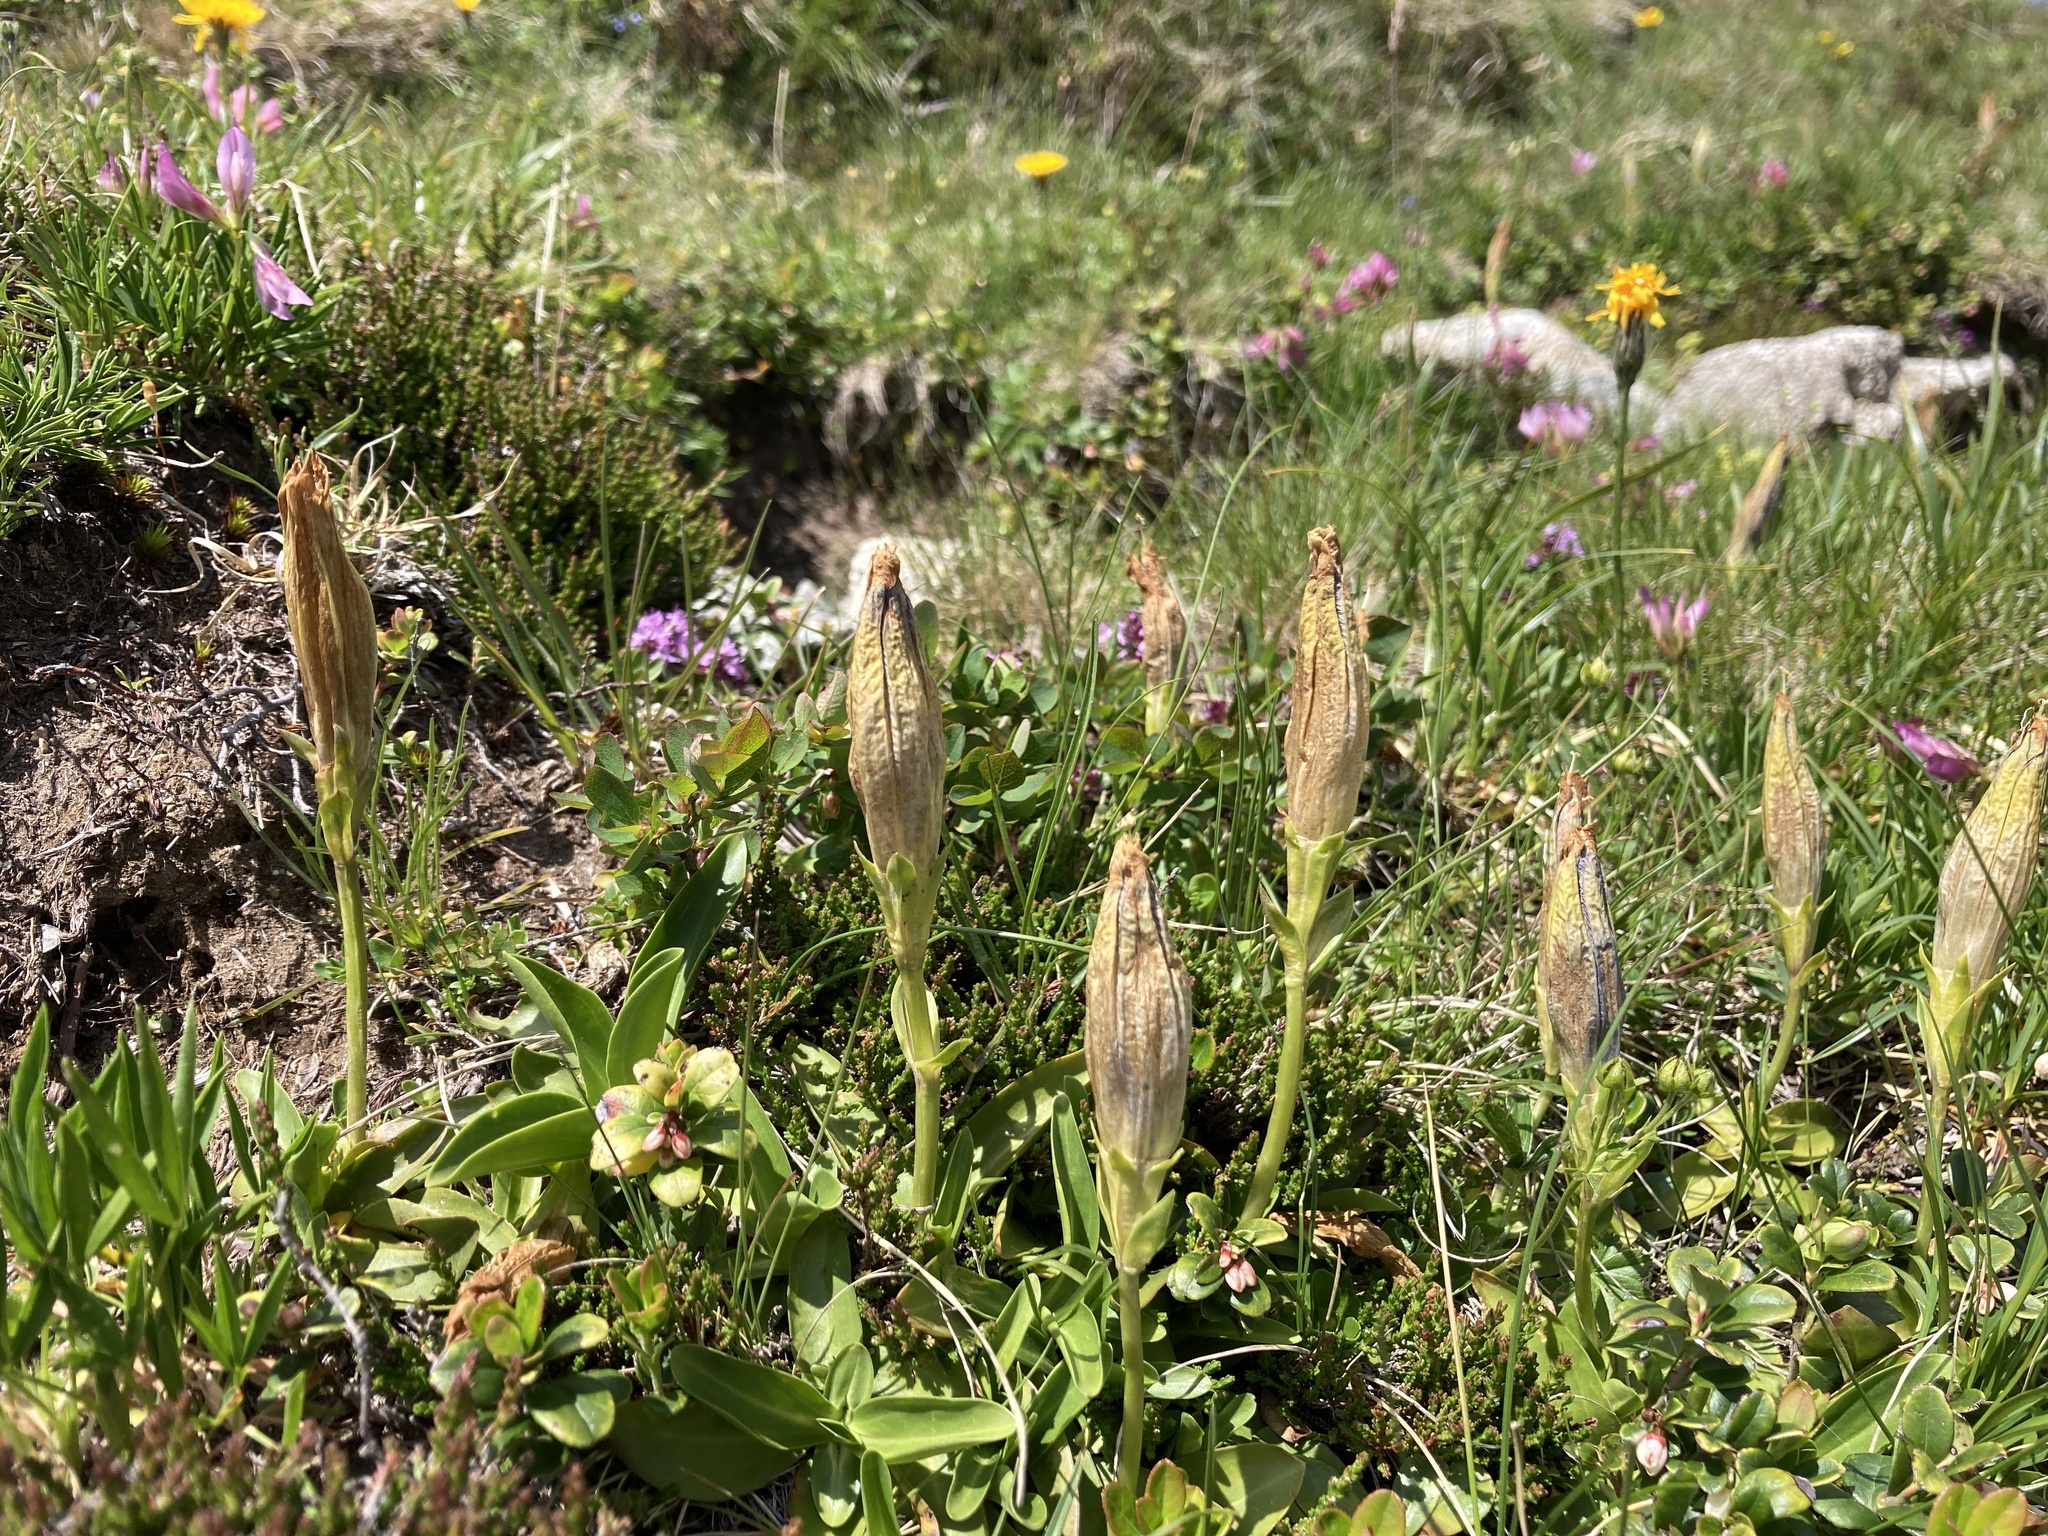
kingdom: Plantae
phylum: Tracheophyta
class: Magnoliopsida
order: Gentianales
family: Gentianaceae
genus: Gentiana
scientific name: Gentiana acaulis
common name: Trumpet gentian
